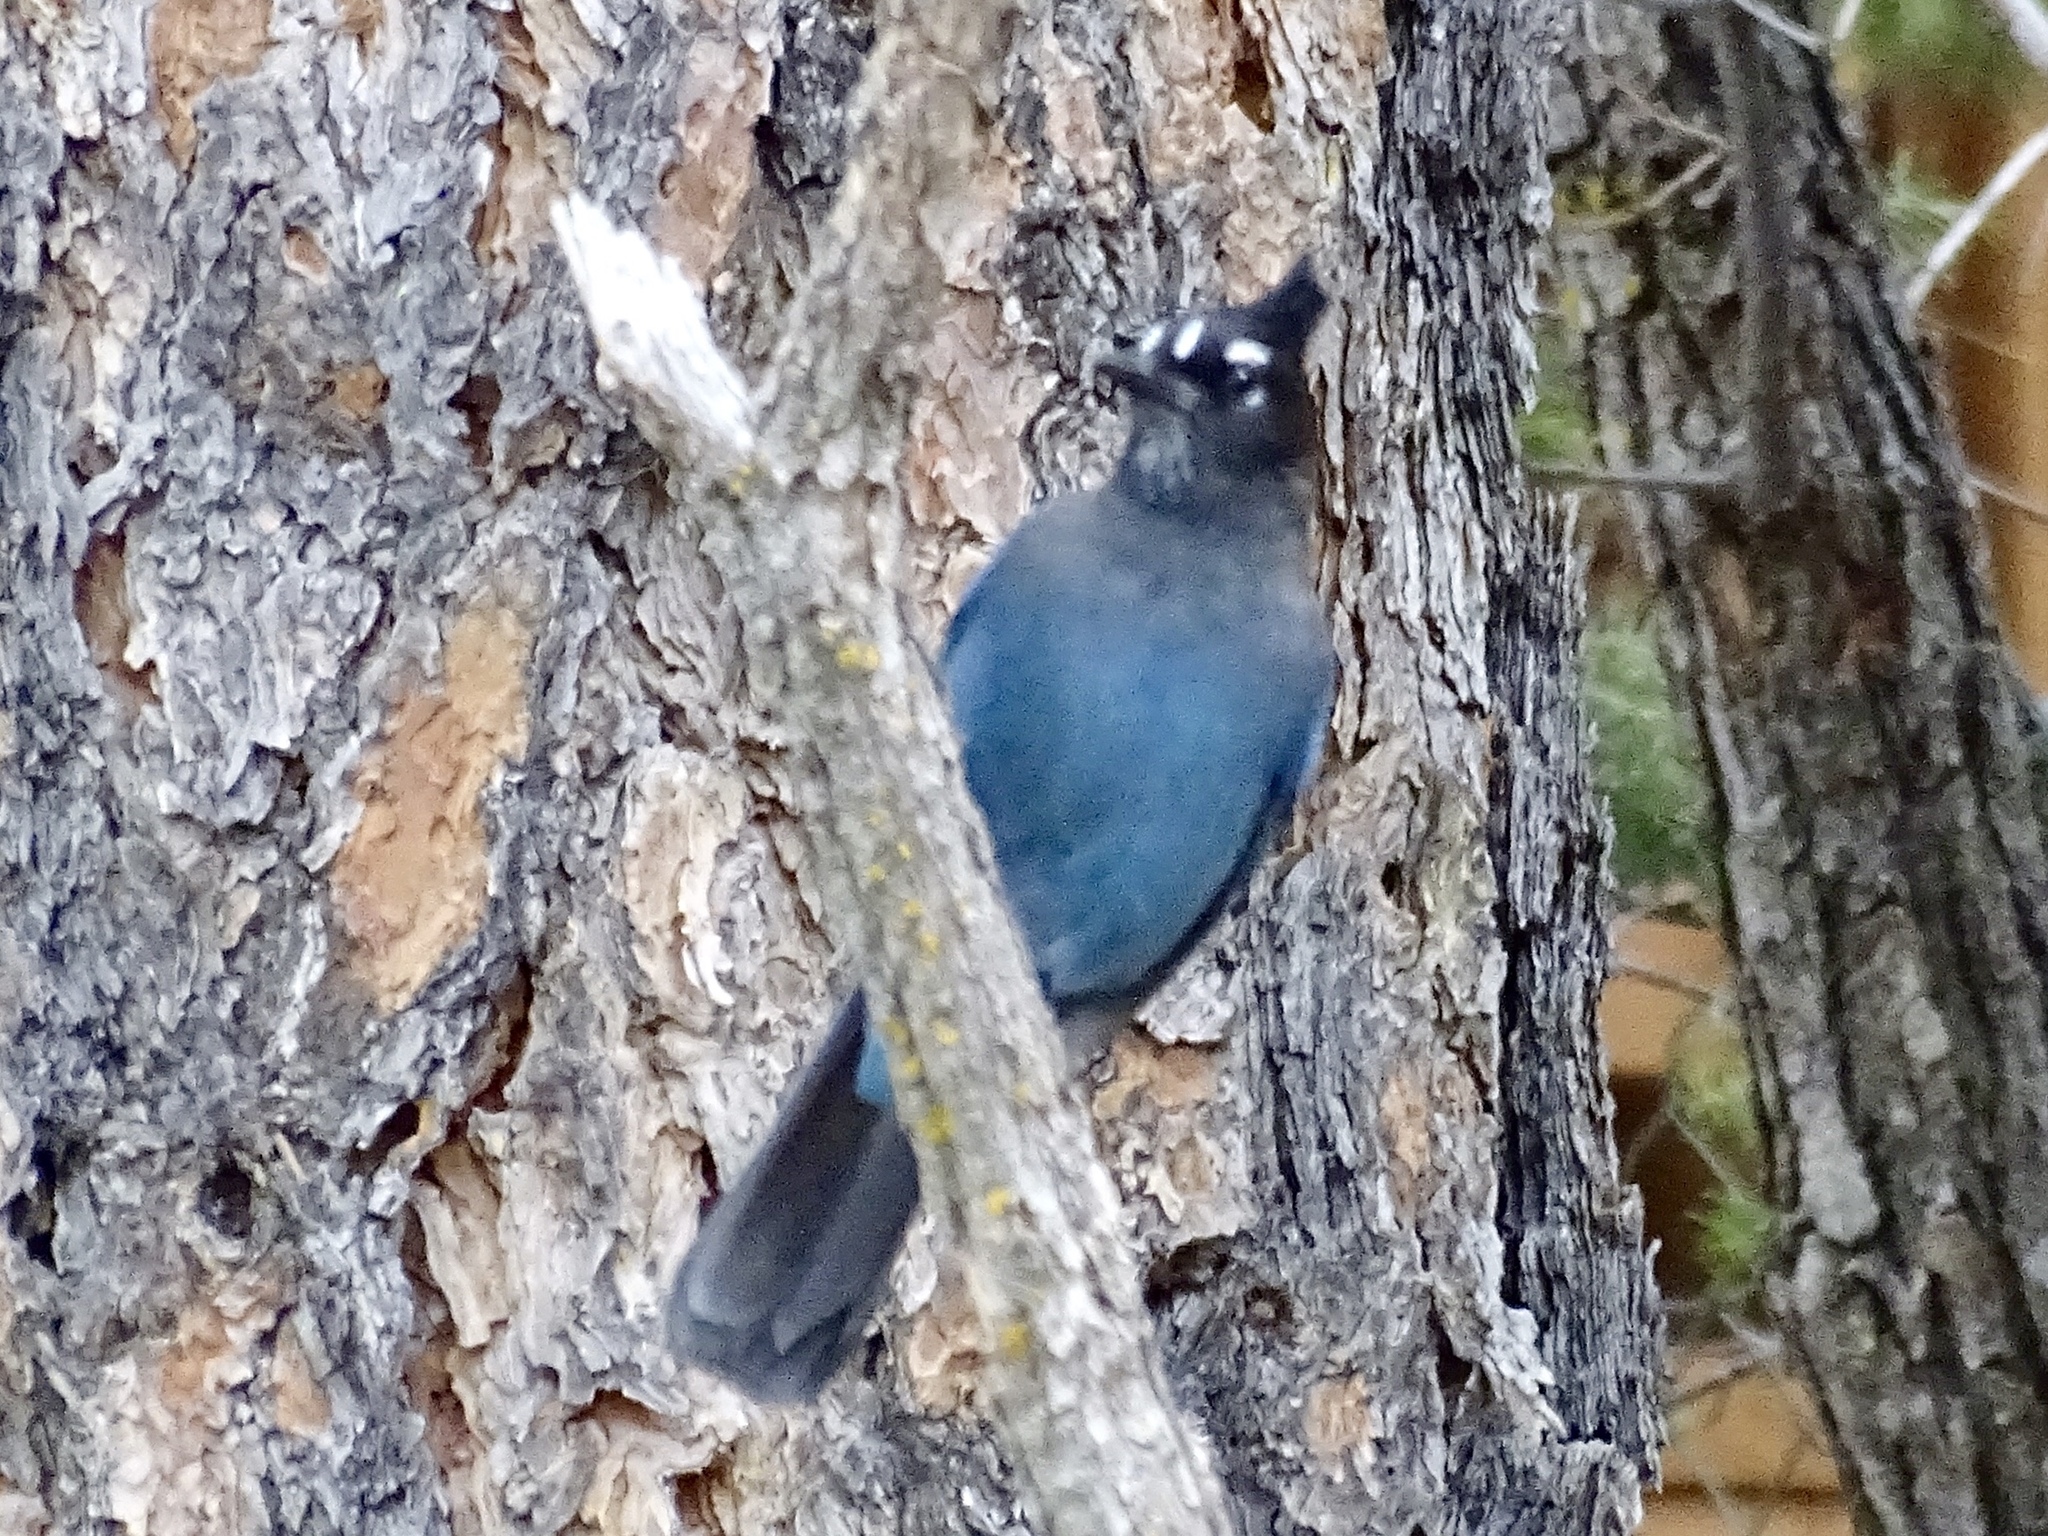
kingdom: Animalia
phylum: Chordata
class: Aves
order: Passeriformes
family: Corvidae
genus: Cyanocitta
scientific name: Cyanocitta stelleri
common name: Steller's jay
